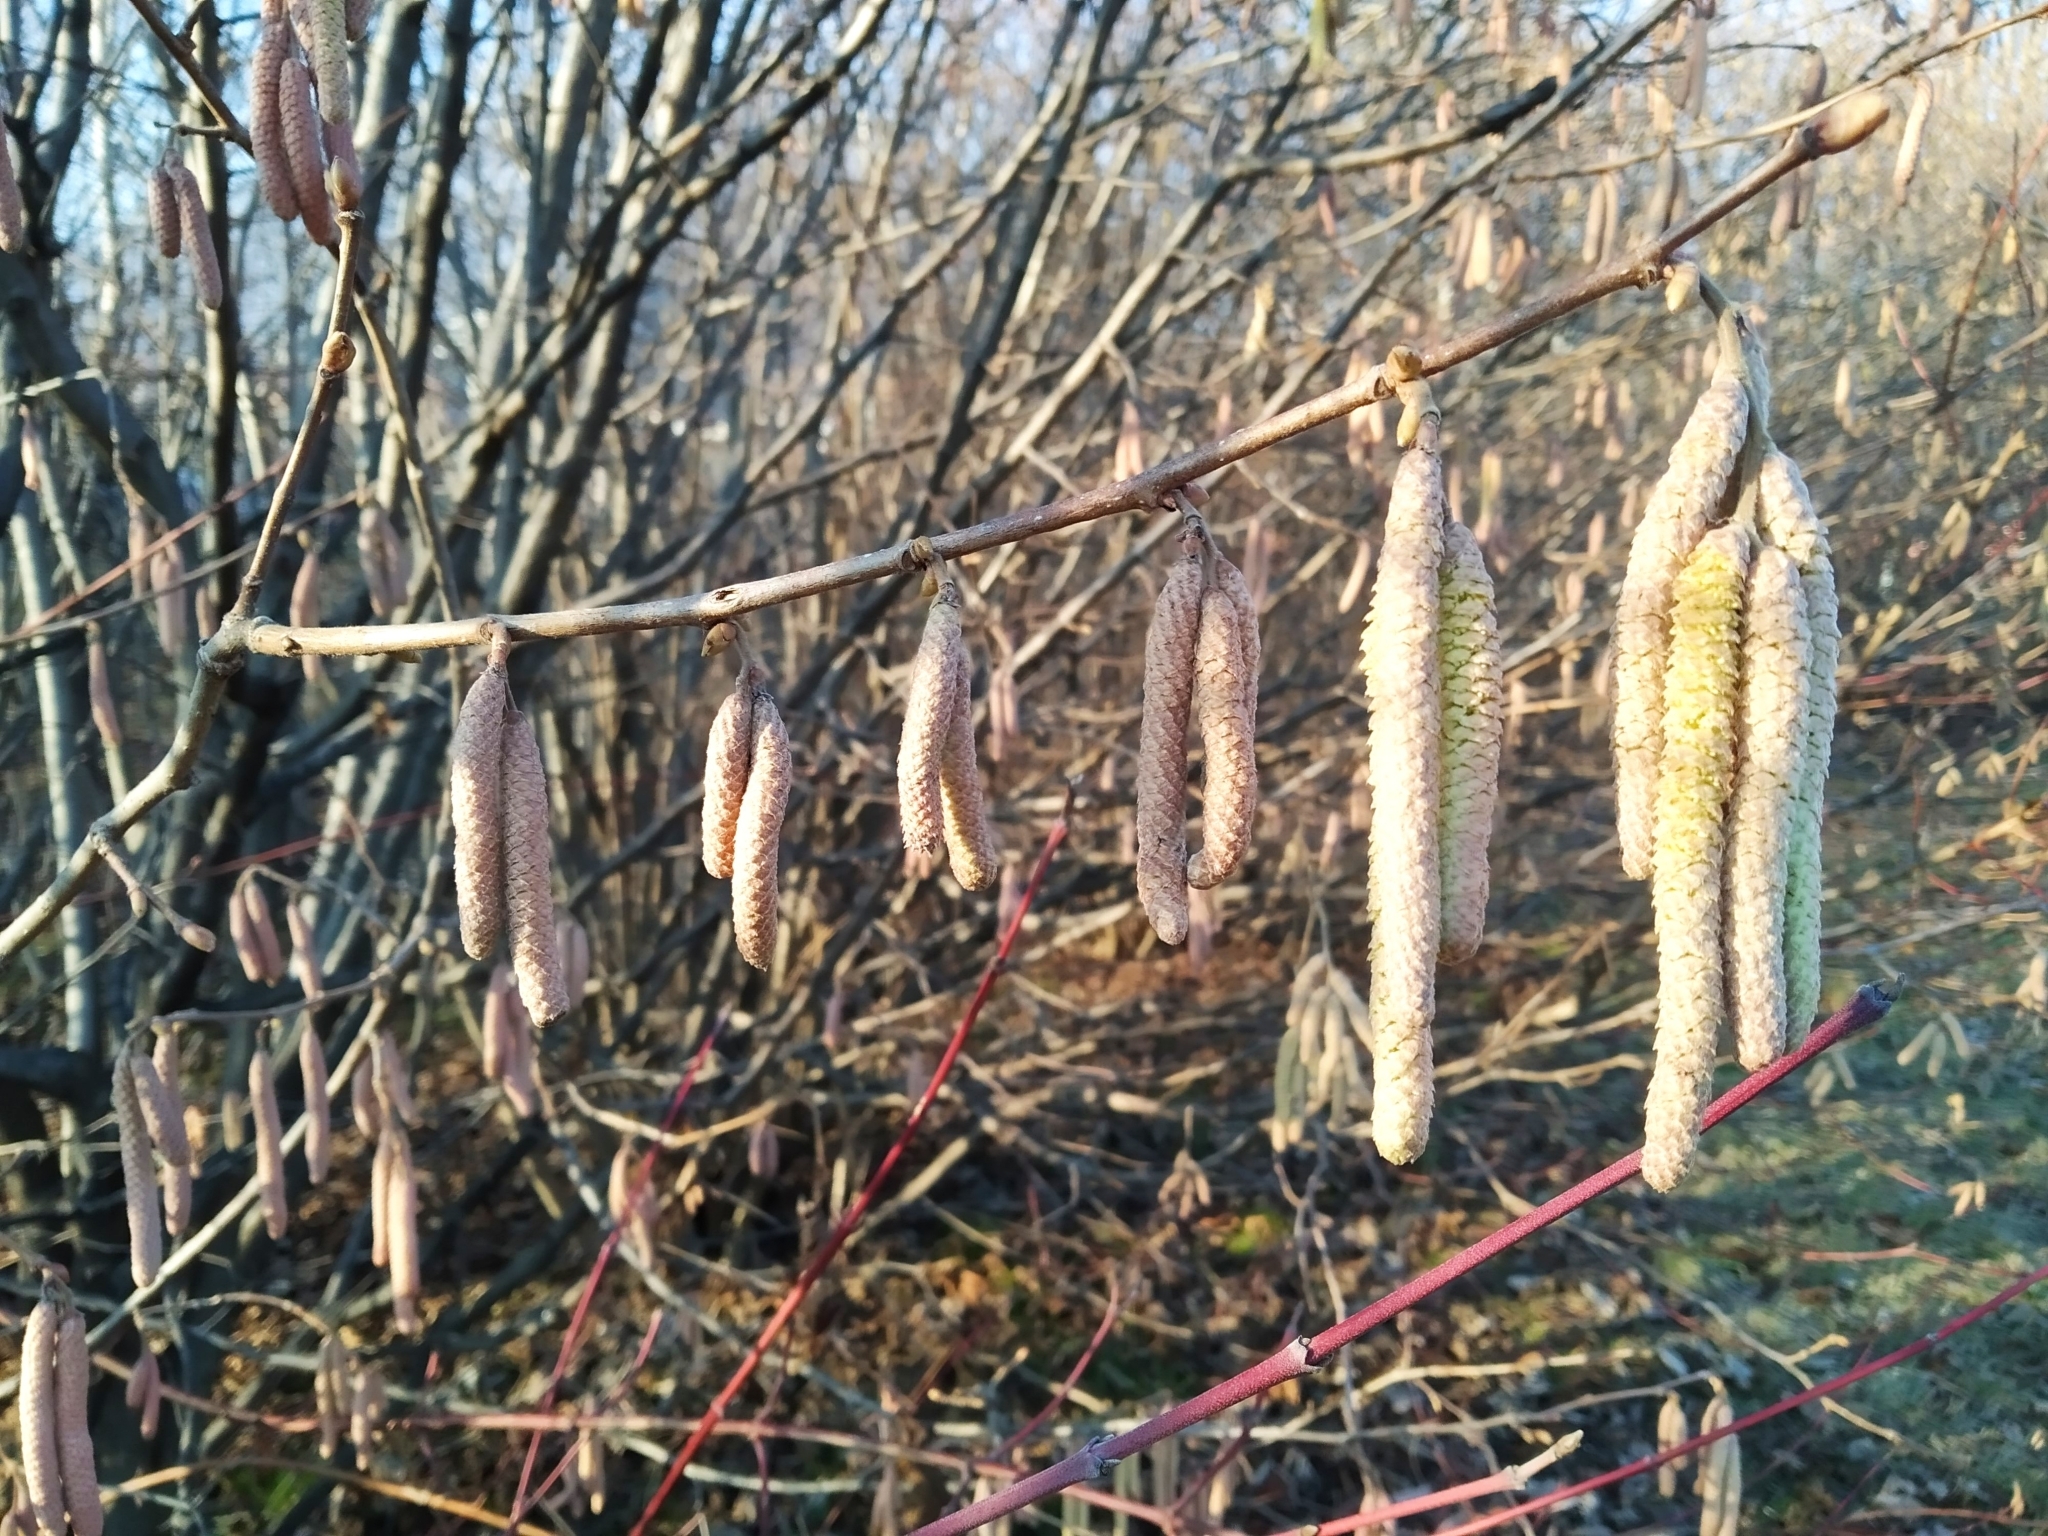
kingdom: Plantae
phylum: Tracheophyta
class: Magnoliopsida
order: Fagales
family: Betulaceae
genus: Corylus
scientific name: Corylus avellana
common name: European hazel
